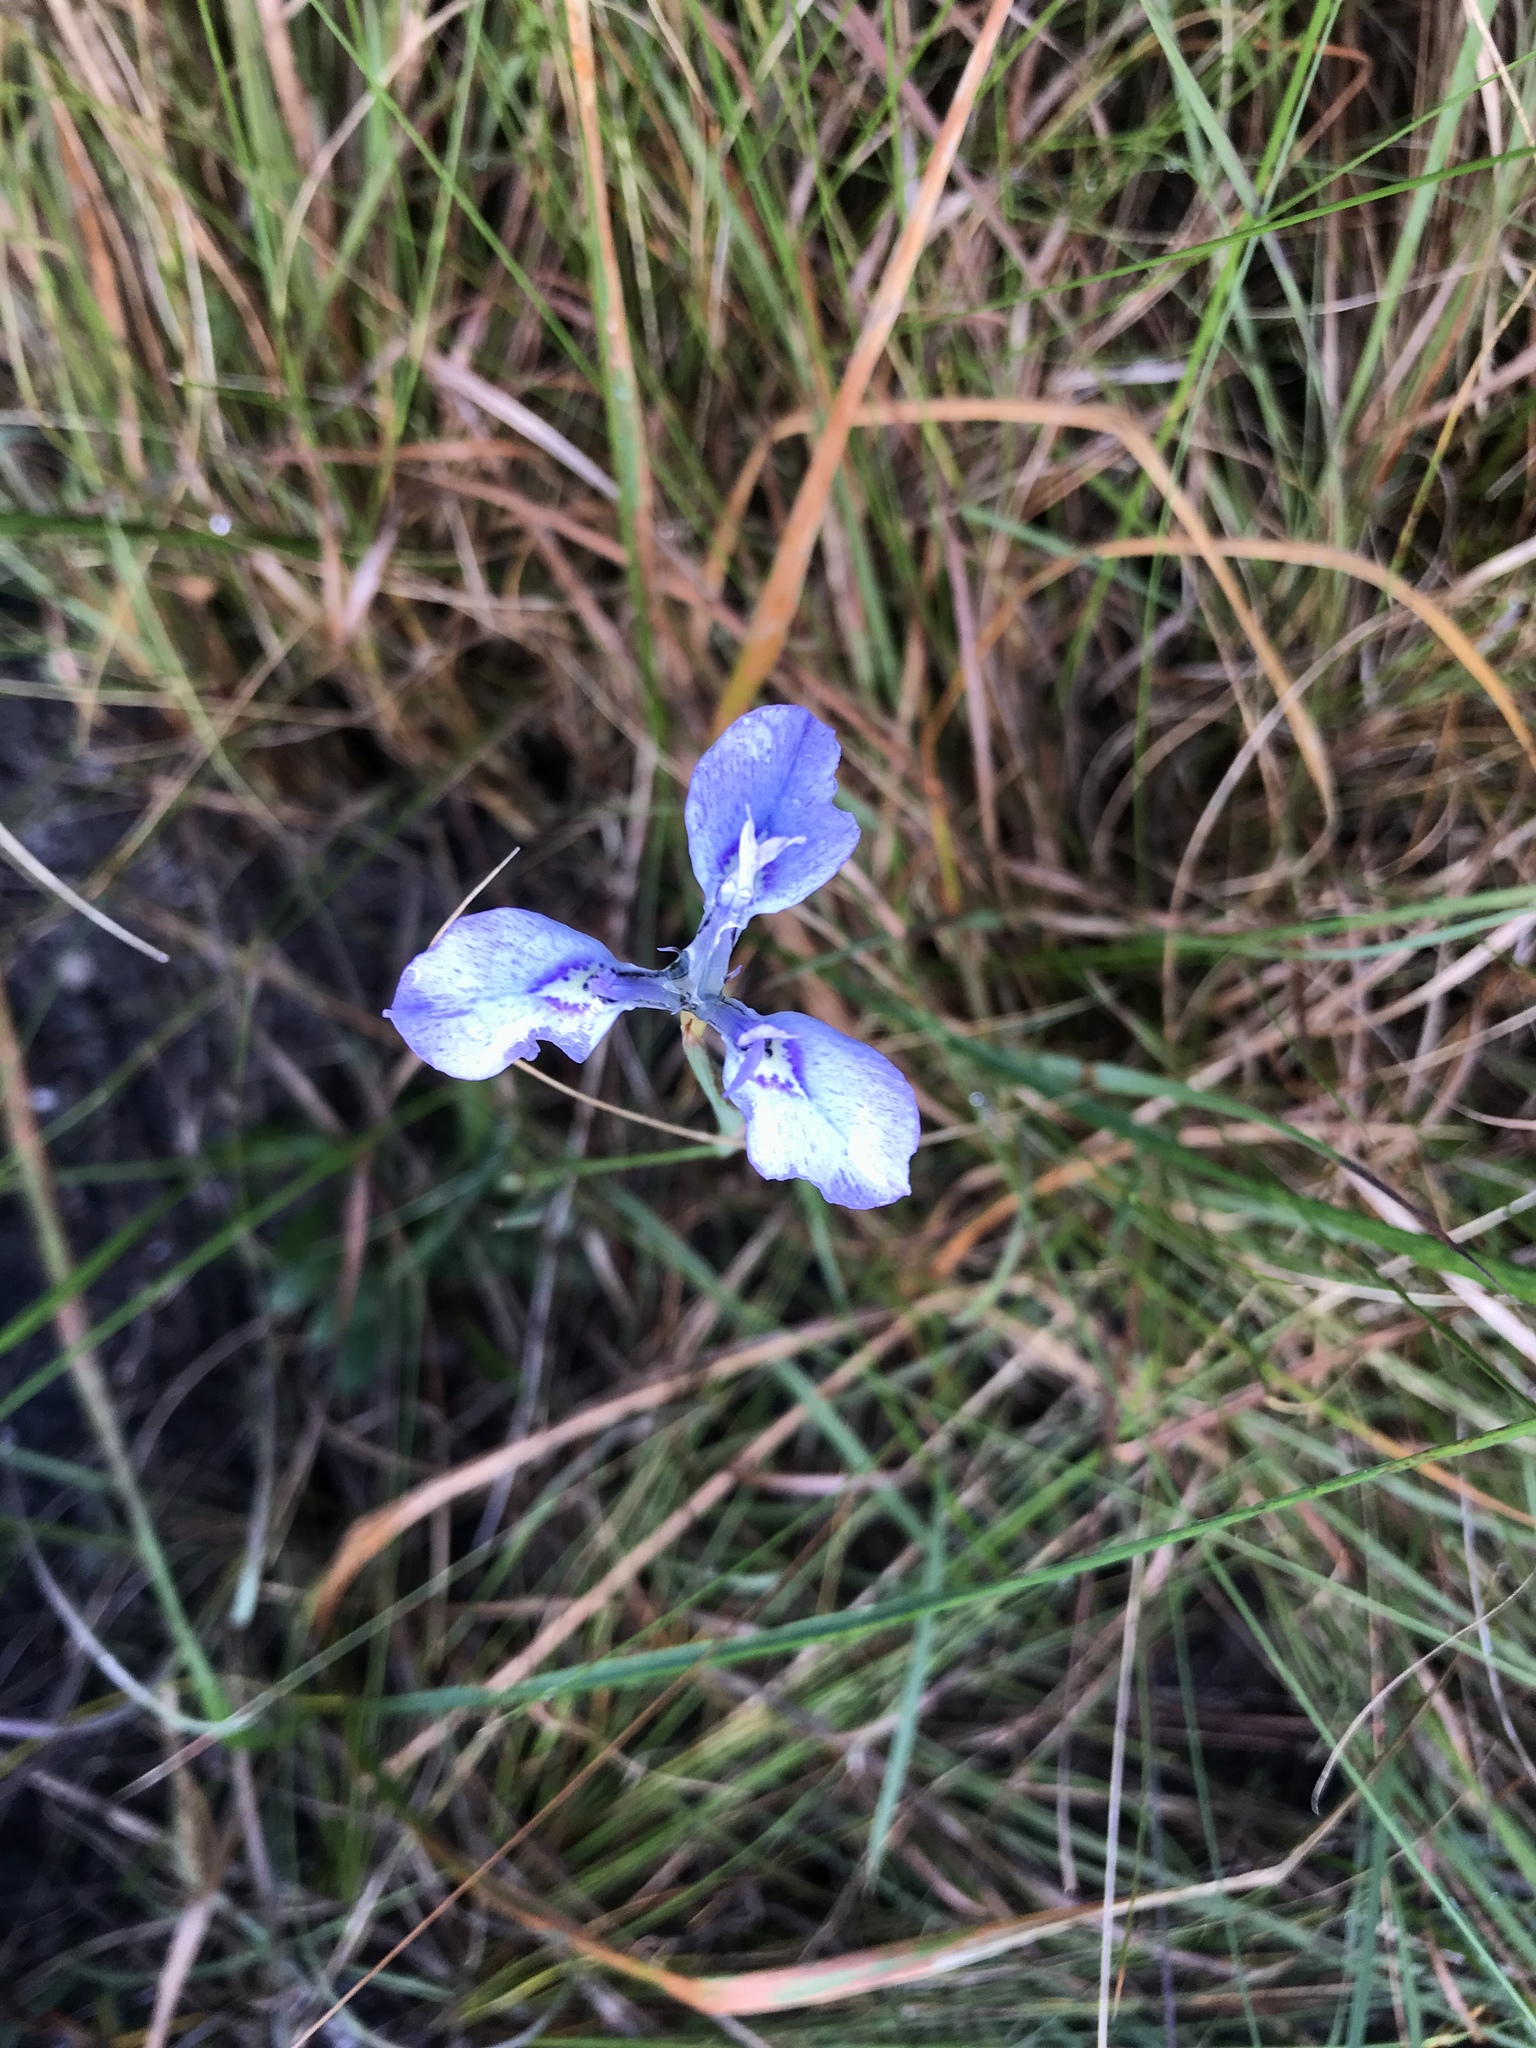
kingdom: Plantae
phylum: Tracheophyta
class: Liliopsida
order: Asparagales
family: Iridaceae
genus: Moraea
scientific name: Moraea tripetala
